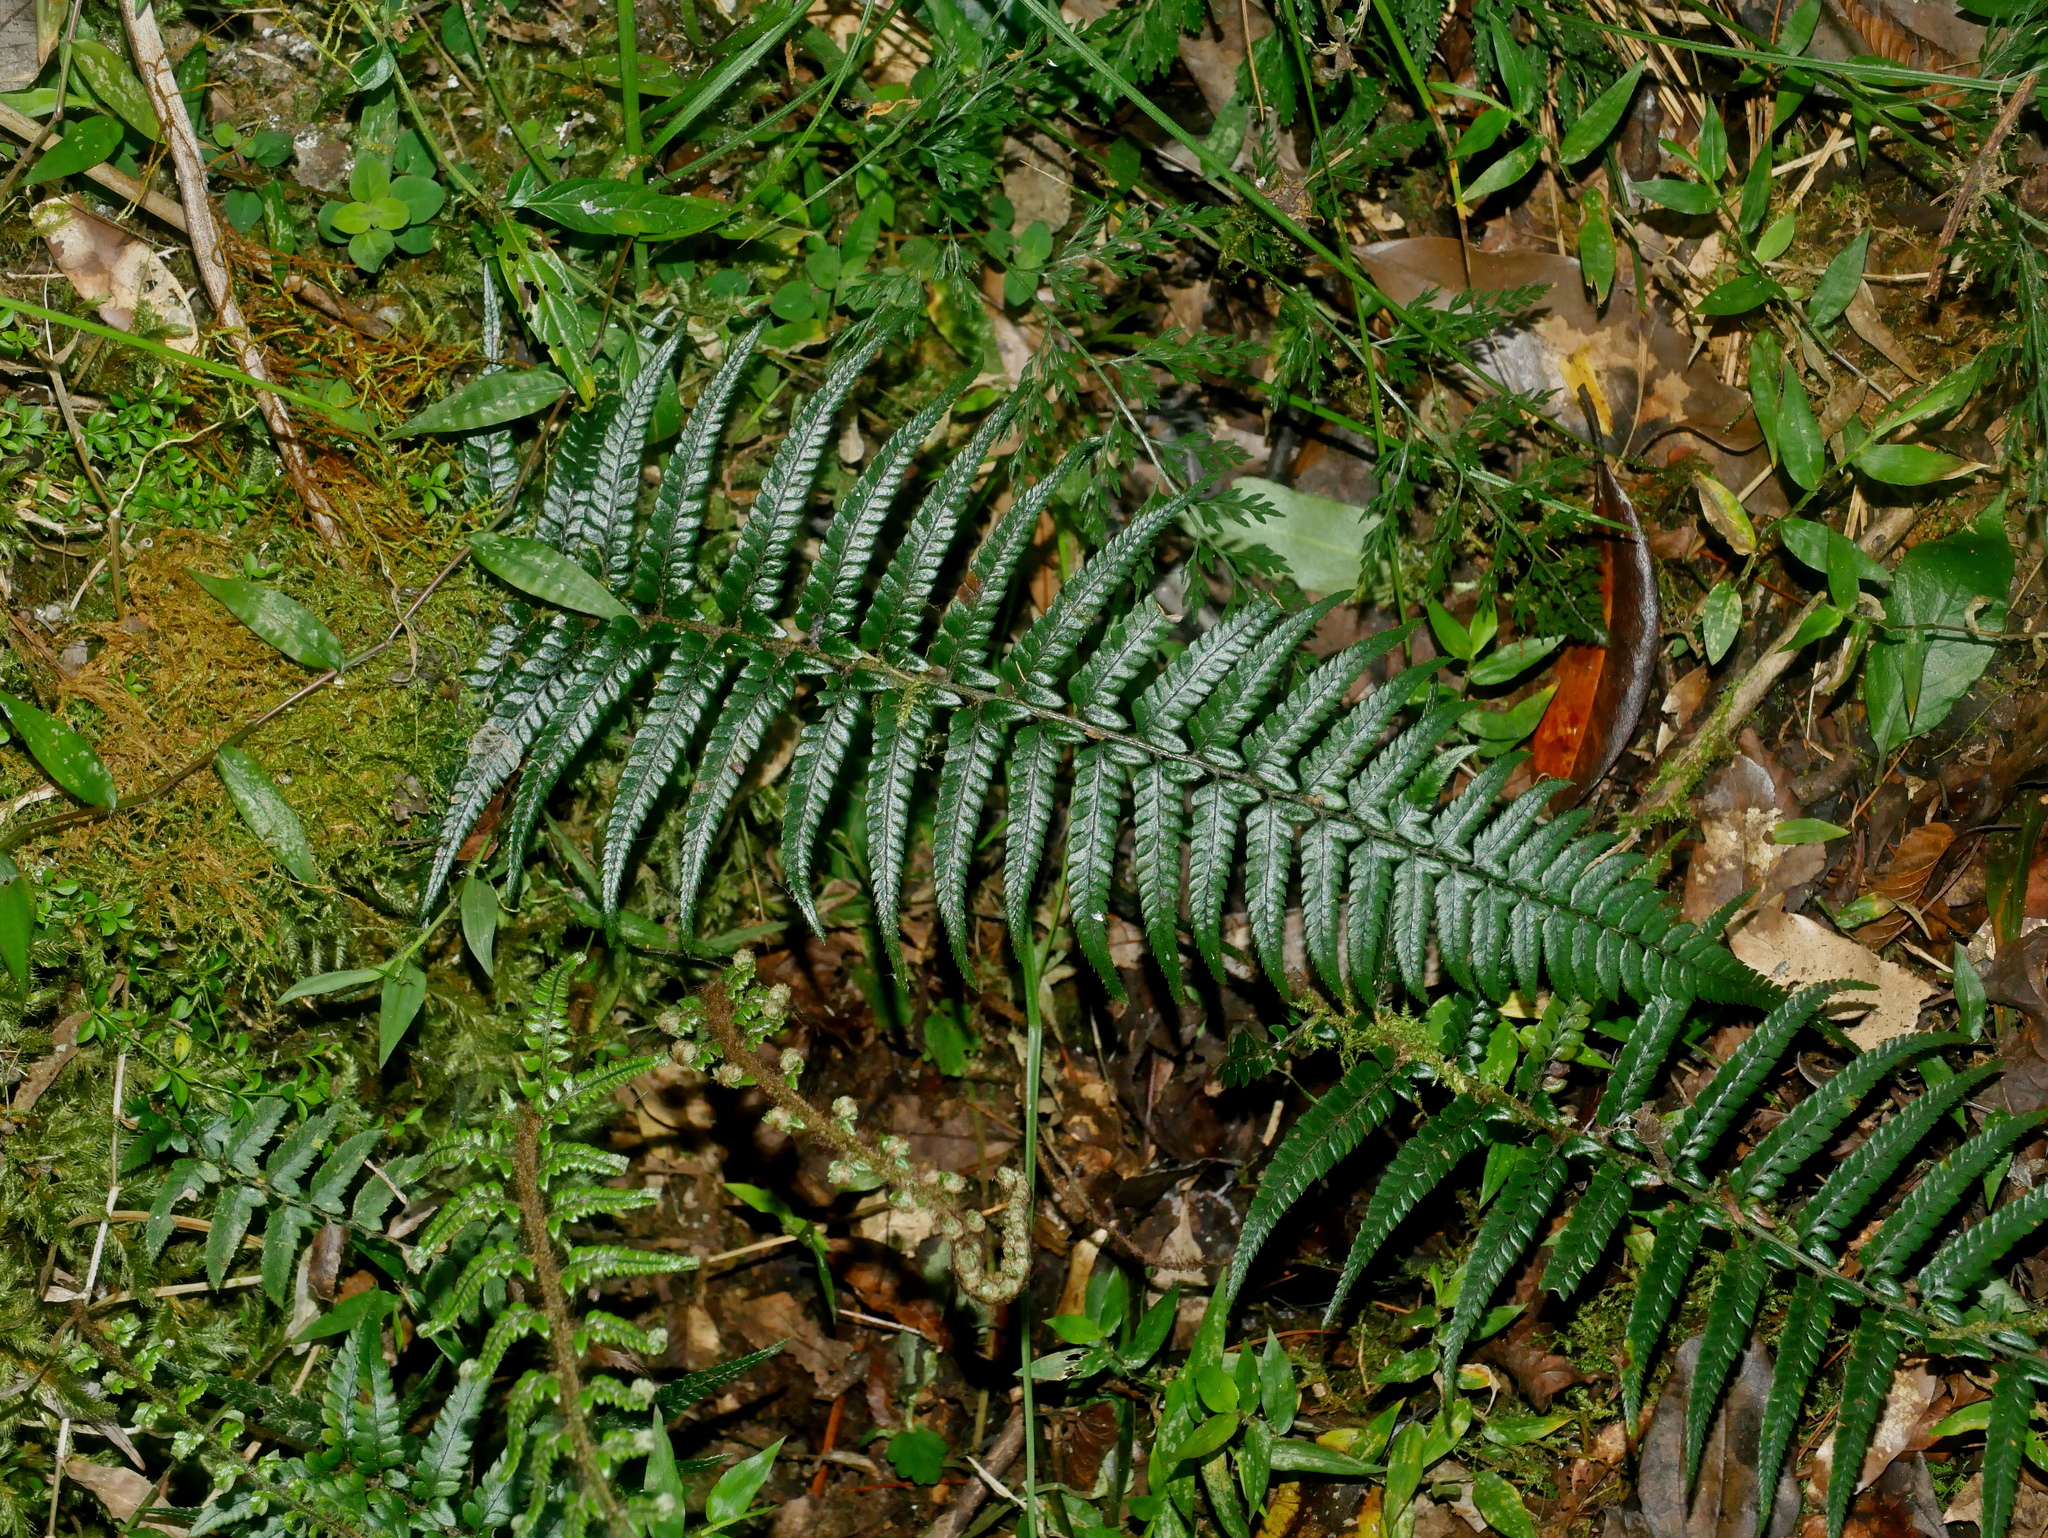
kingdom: Plantae
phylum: Tracheophyta
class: Polypodiopsida
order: Polypodiales
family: Dryopteridaceae
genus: Polystichum
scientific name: Polystichum luctuosum
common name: Korean rockfern
